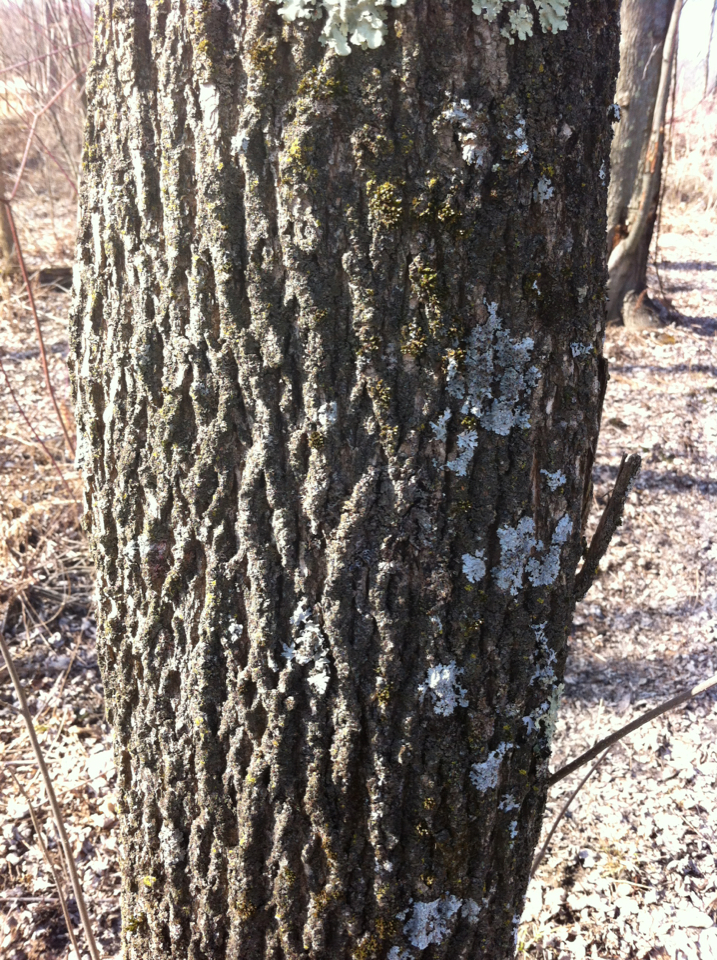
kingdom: Plantae
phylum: Tracheophyta
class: Magnoliopsida
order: Lamiales
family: Oleaceae
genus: Fraxinus
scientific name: Fraxinus pennsylvanica
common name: Green ash
